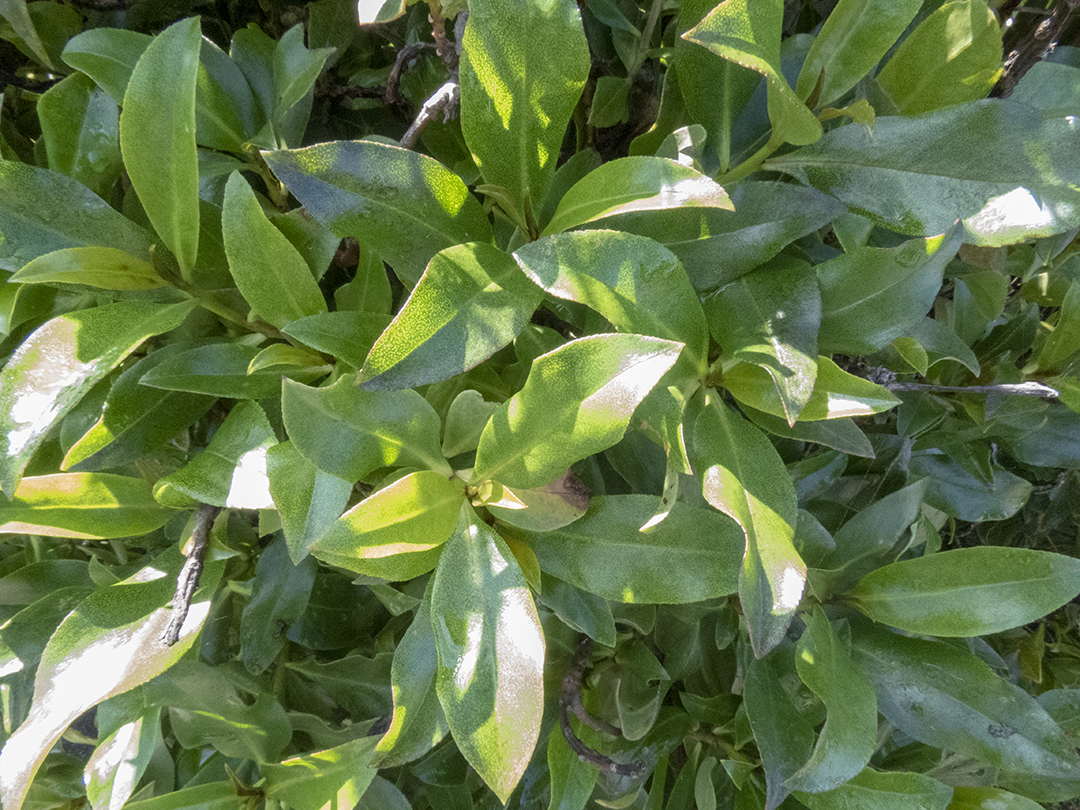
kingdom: Plantae
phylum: Tracheophyta
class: Magnoliopsida
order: Lamiales
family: Scrophulariaceae
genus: Myoporum
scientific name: Myoporum laetum
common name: Ngaio tree
